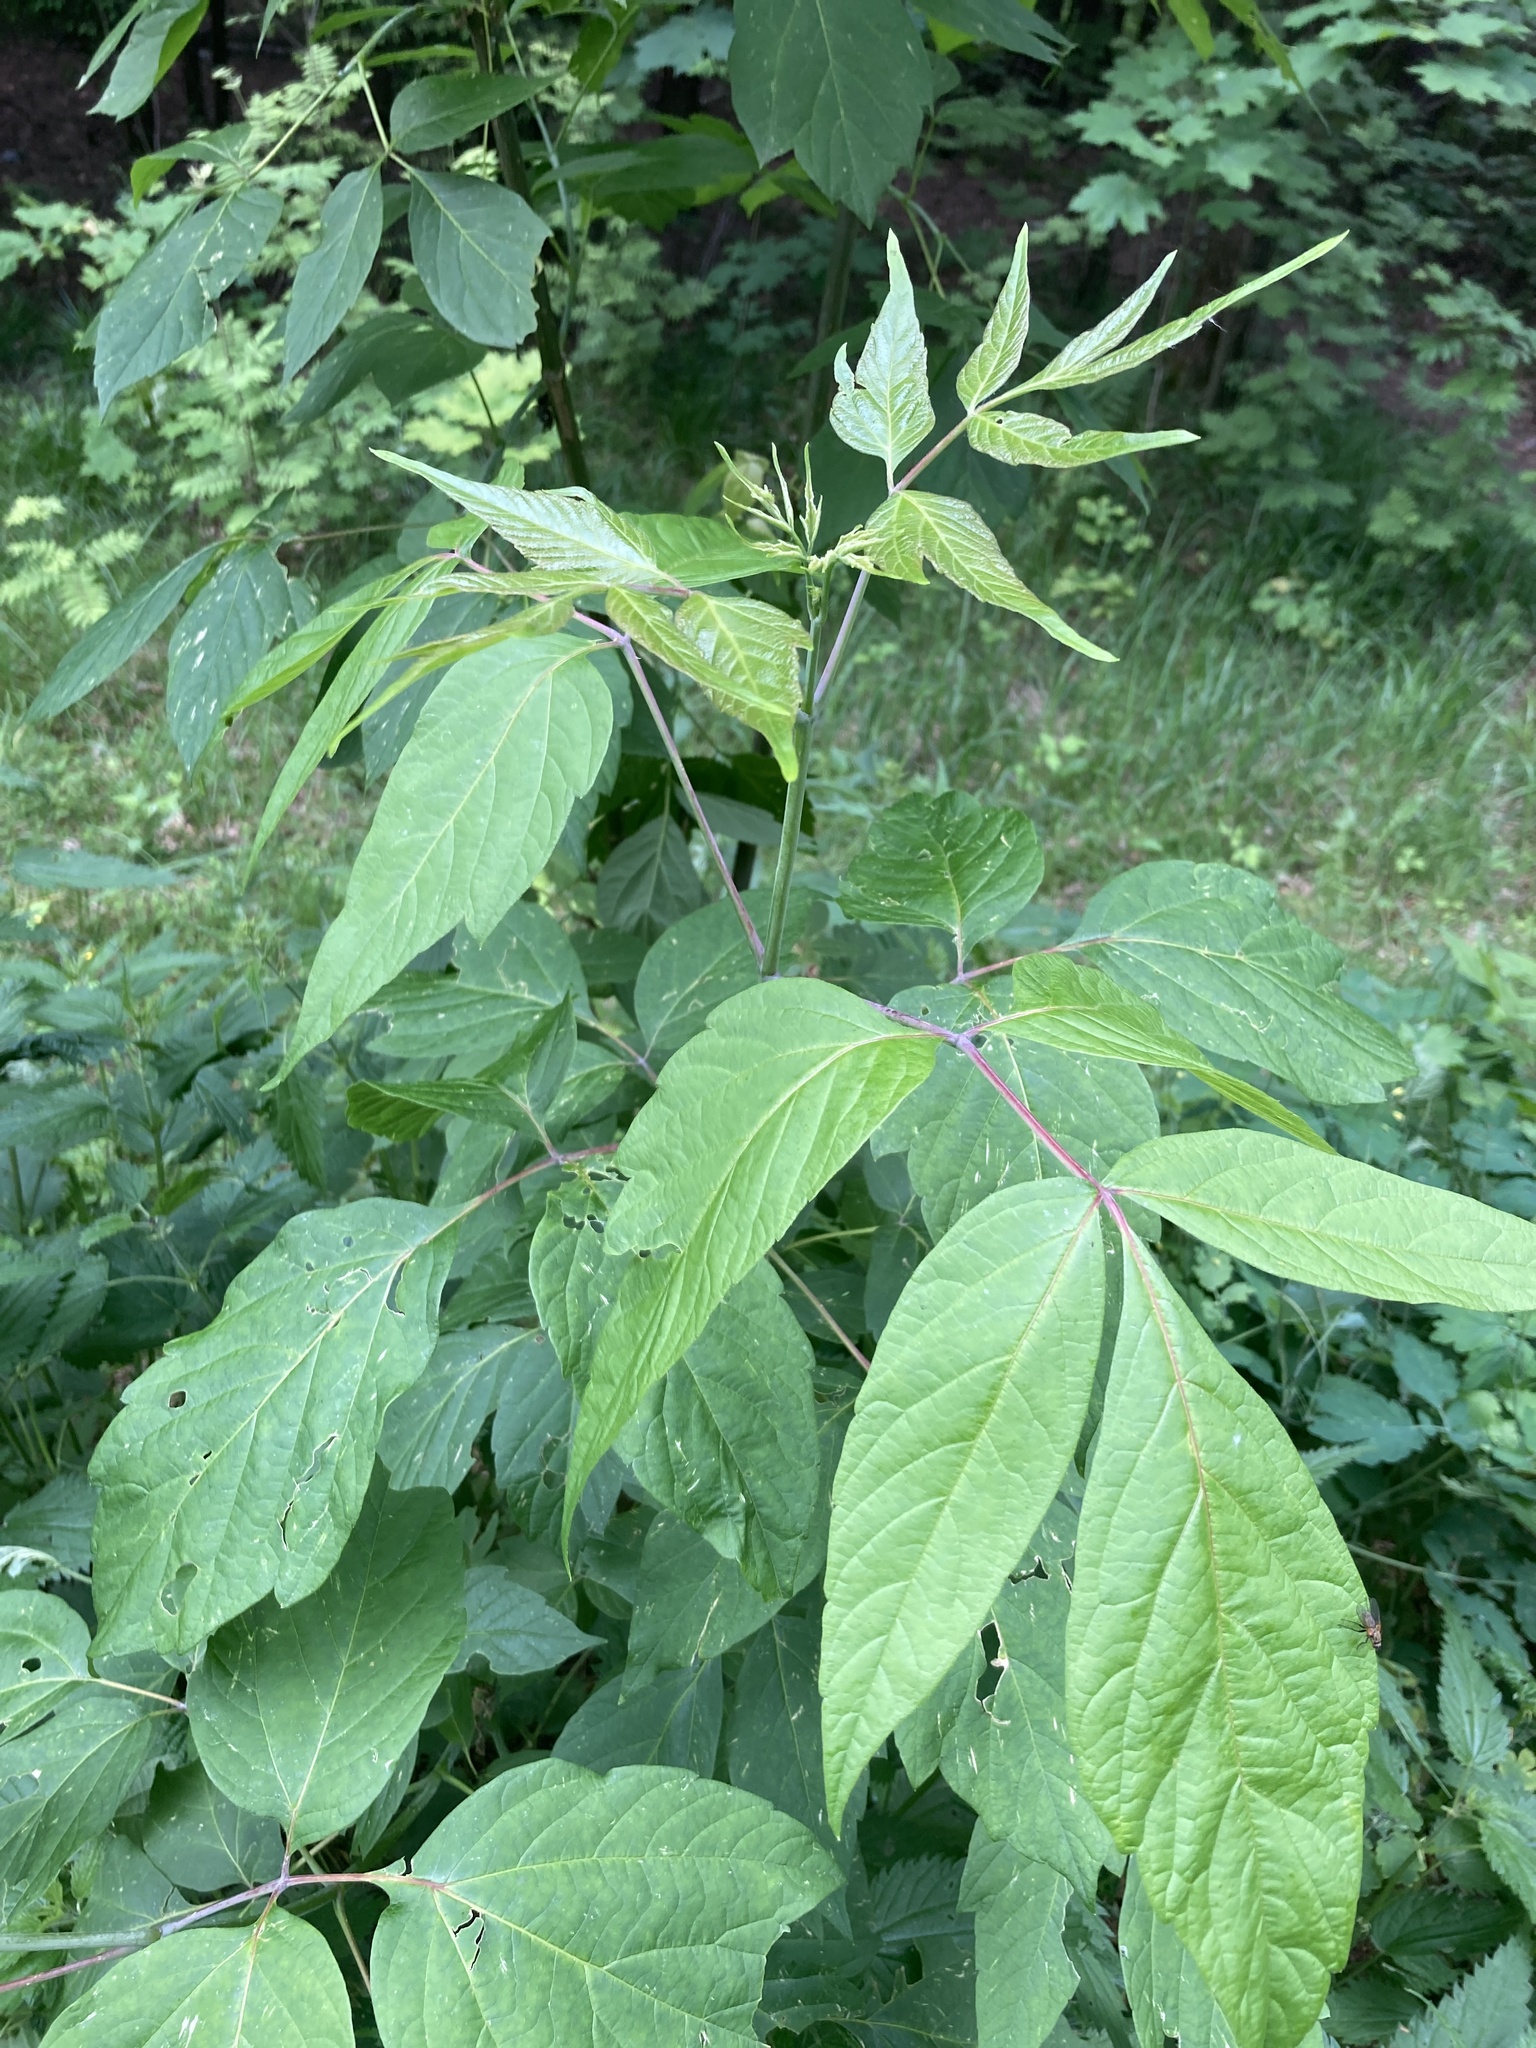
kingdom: Plantae
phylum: Tracheophyta
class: Magnoliopsida
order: Sapindales
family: Sapindaceae
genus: Acer
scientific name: Acer negundo
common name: Ashleaf maple
